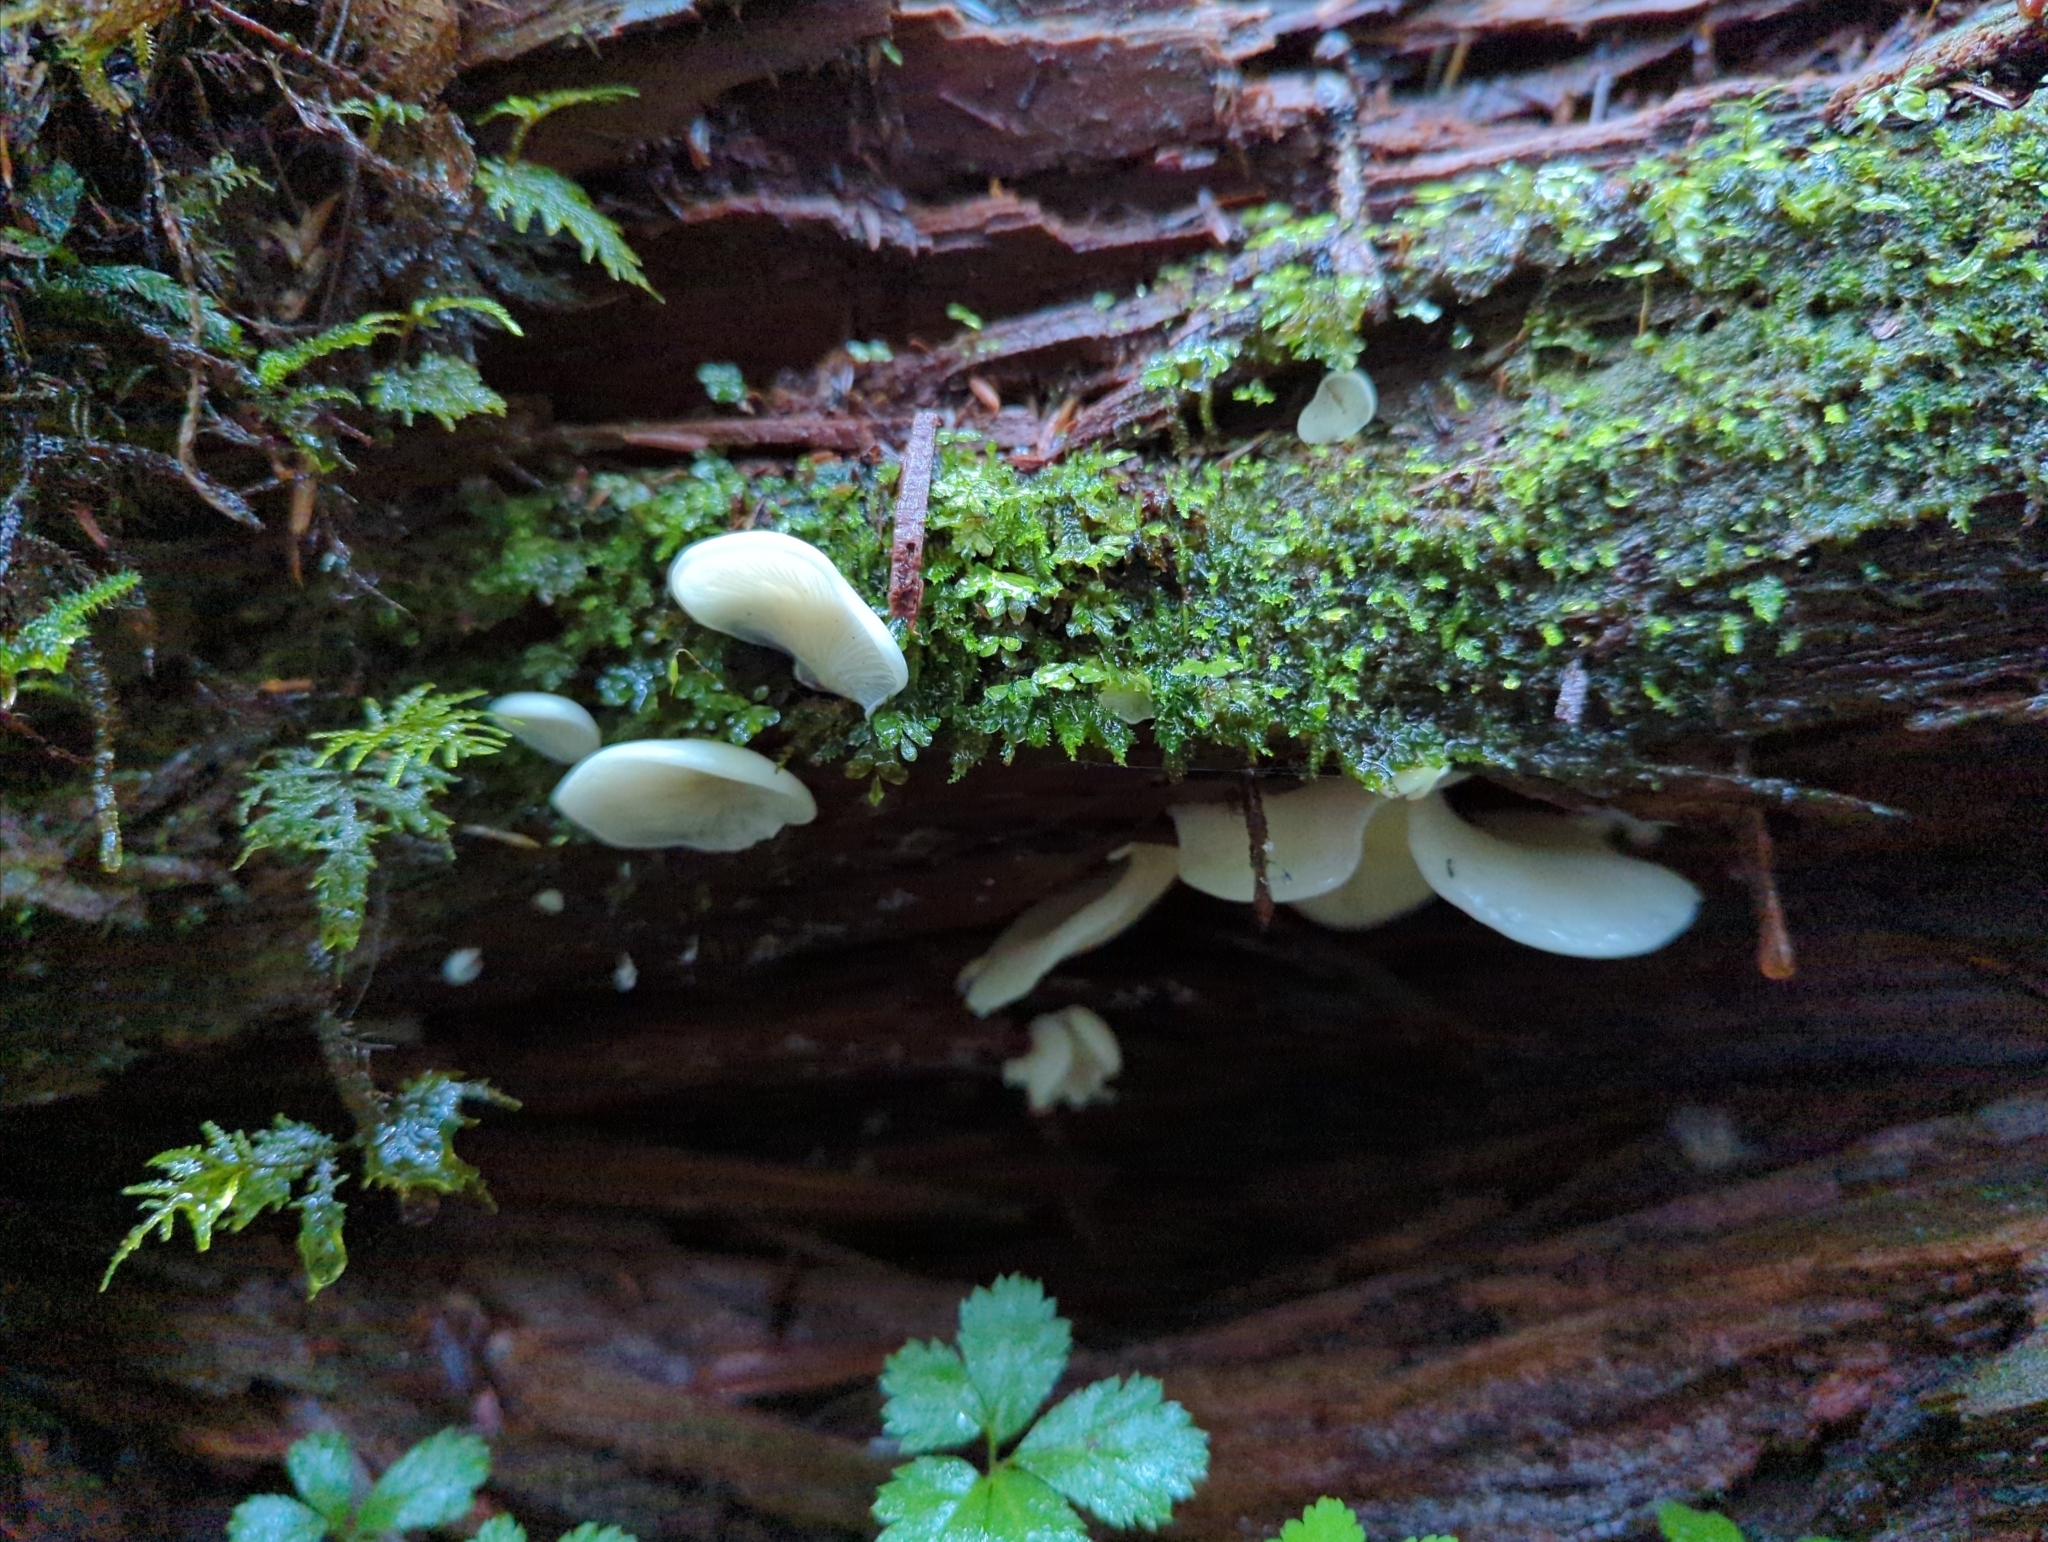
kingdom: Fungi
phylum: Basidiomycota
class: Agaricomycetes
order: Agaricales
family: Marasmiaceae
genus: Pleurocybella
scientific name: Pleurocybella porrigens
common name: Angel's wings
